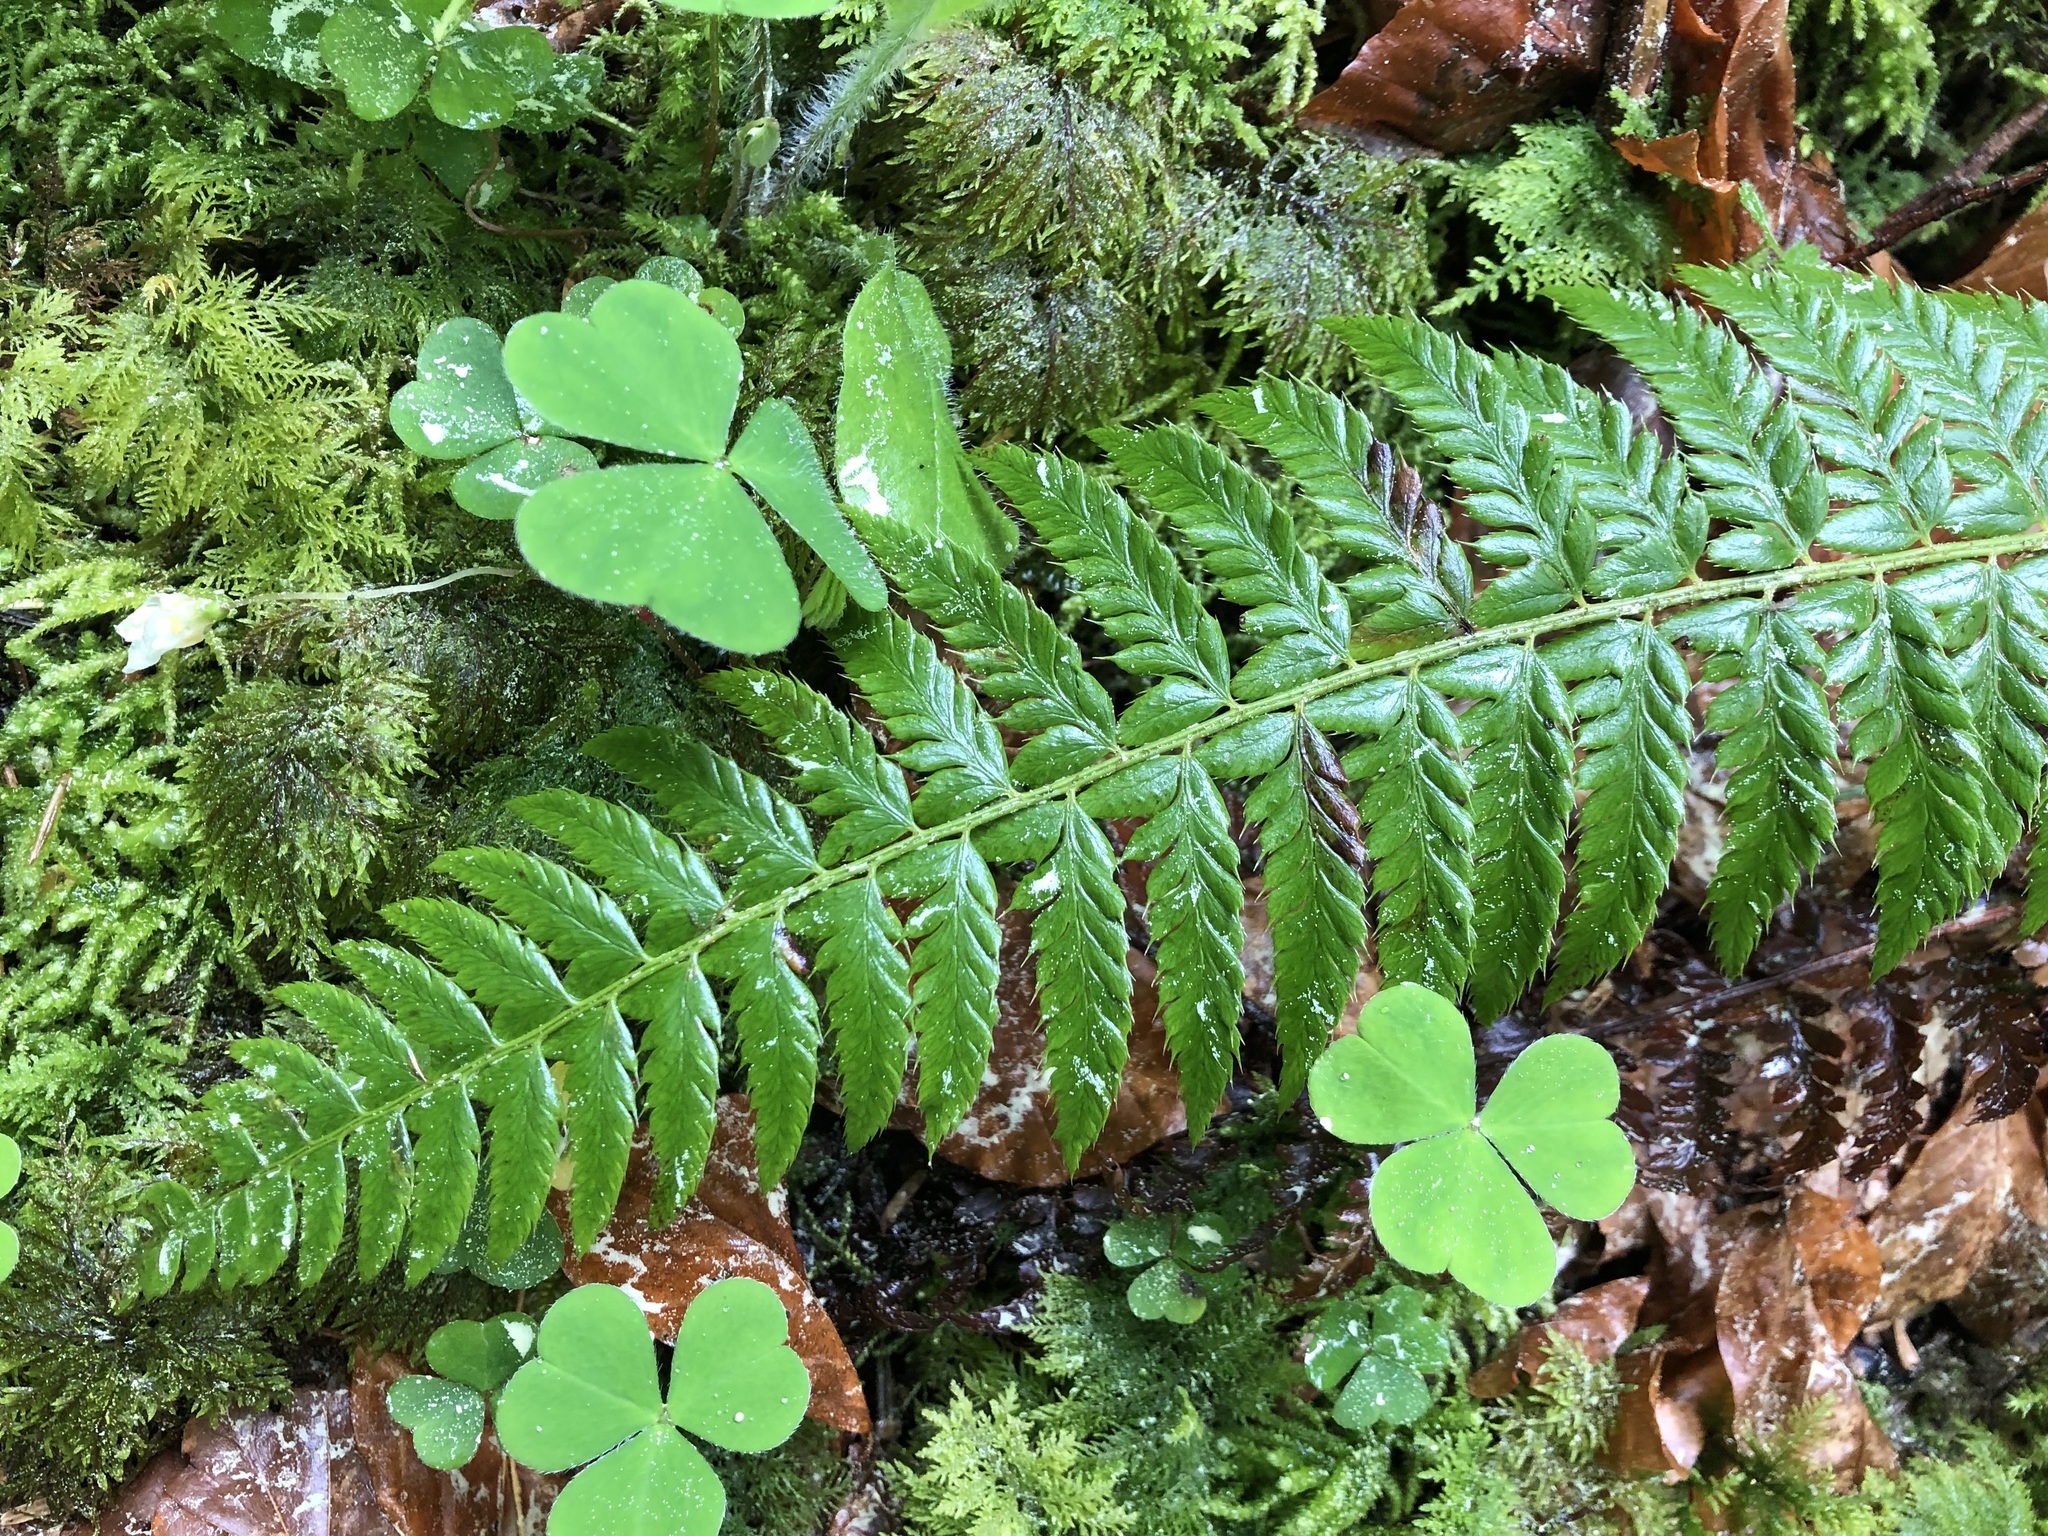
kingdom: Plantae
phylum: Tracheophyta
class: Polypodiopsida
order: Polypodiales
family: Dryopteridaceae
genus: Polystichum
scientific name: Polystichum aculeatum
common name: Hard shield-fern
